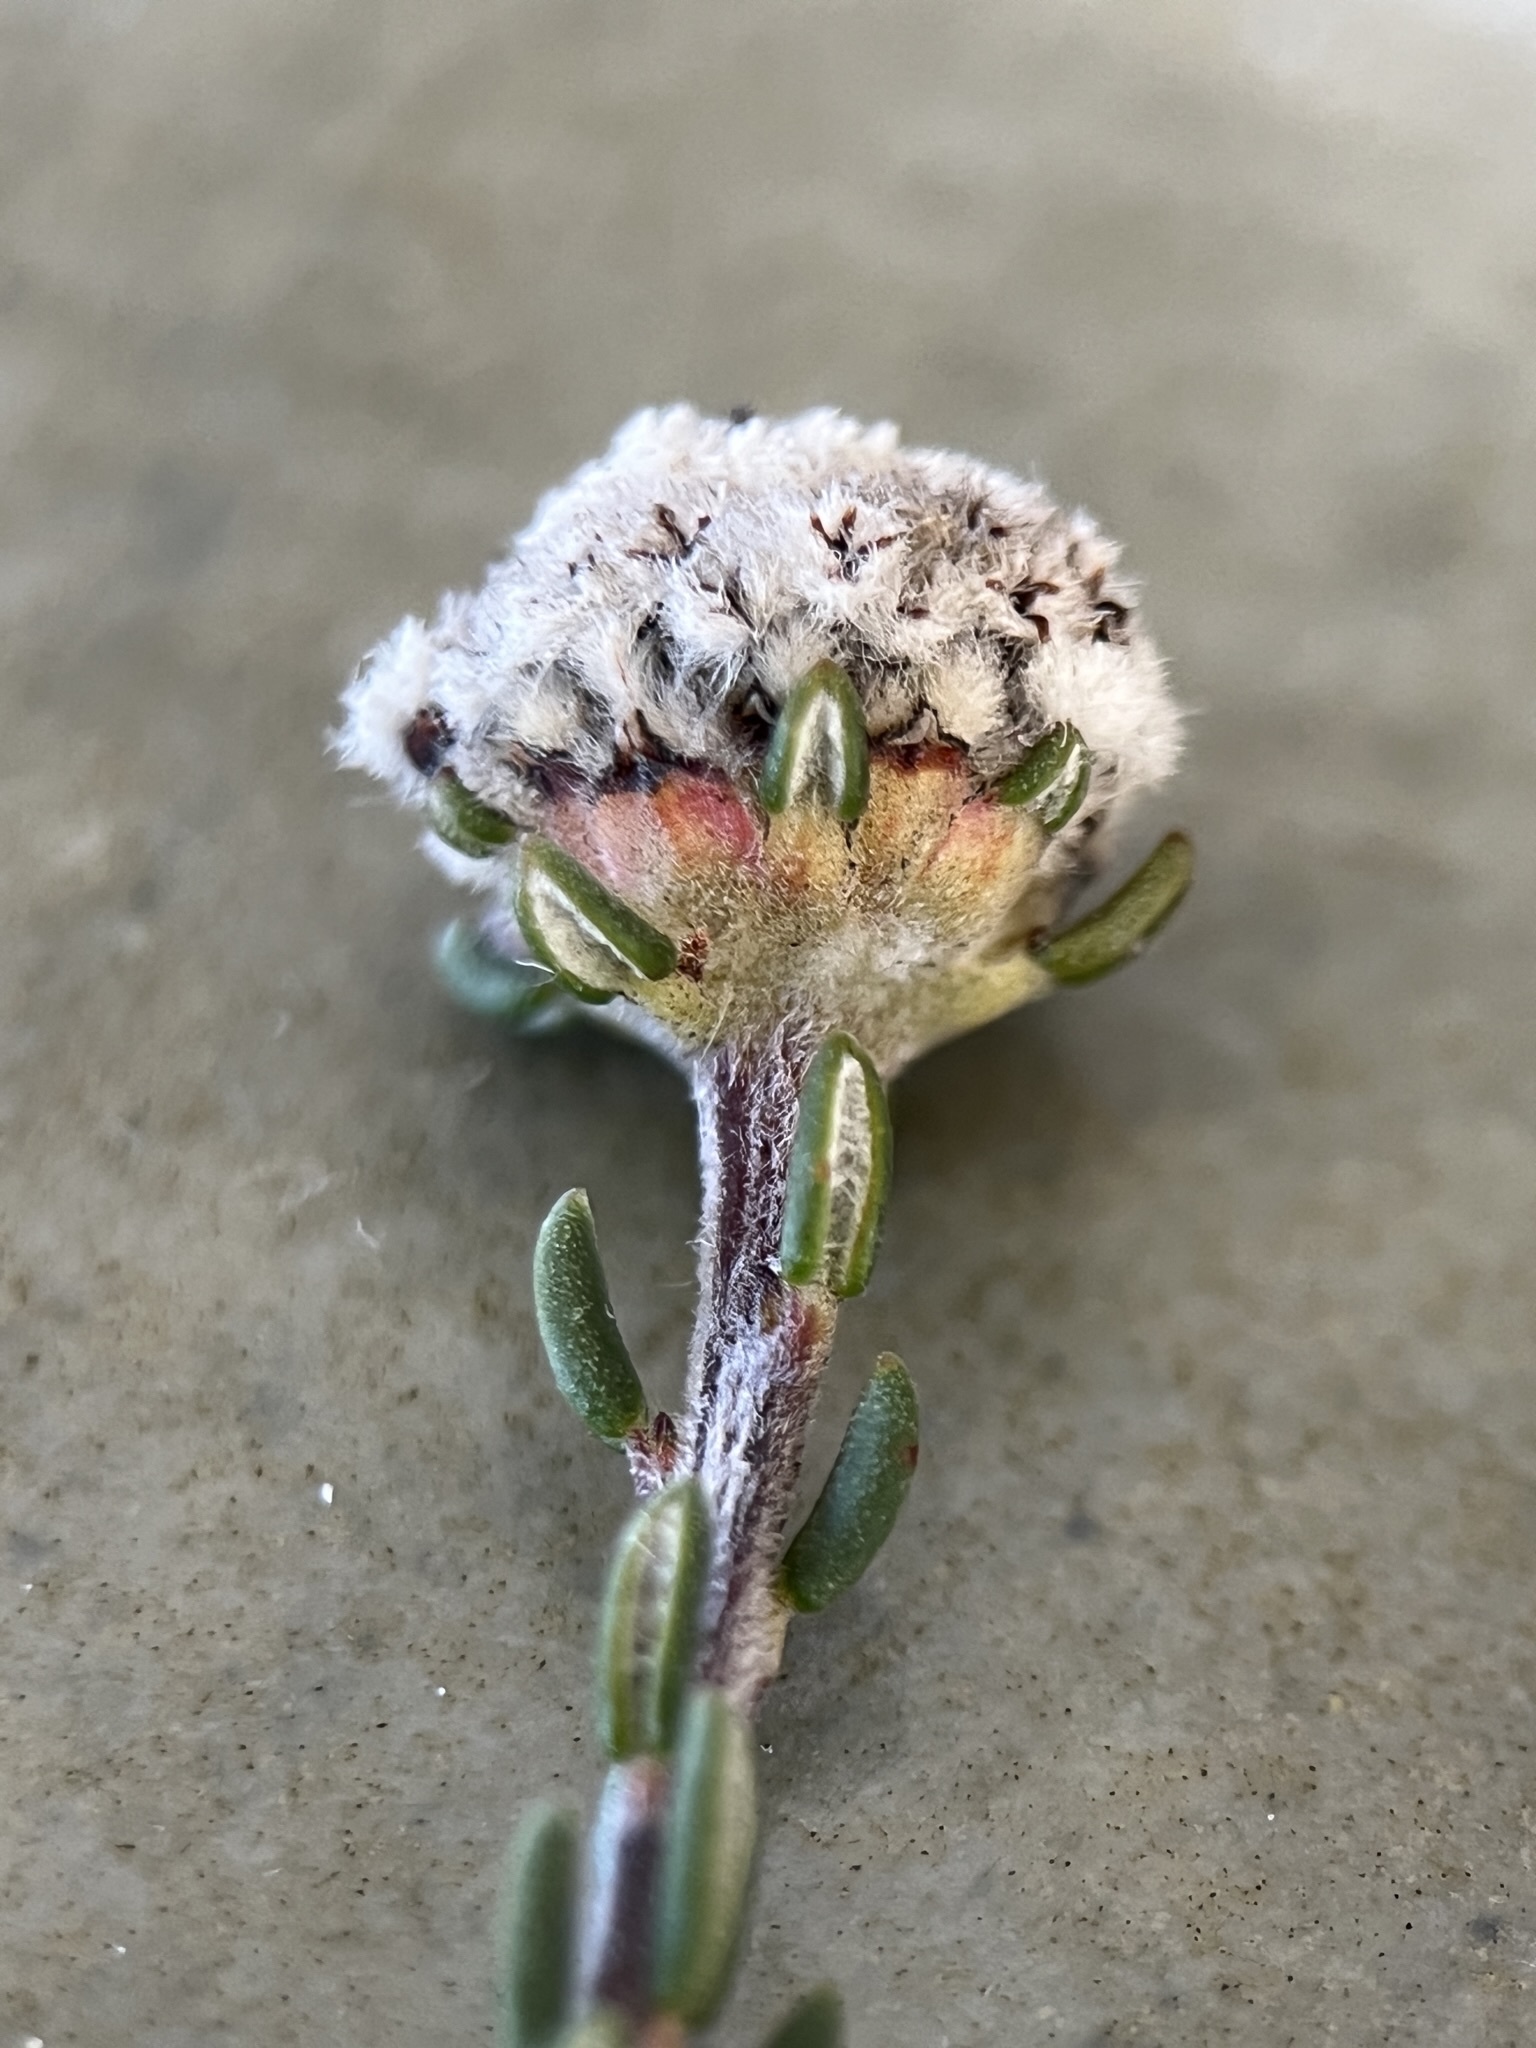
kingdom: Plantae
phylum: Tracheophyta
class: Magnoliopsida
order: Rosales
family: Rhamnaceae
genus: Phylica
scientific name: Phylica selaginoides
